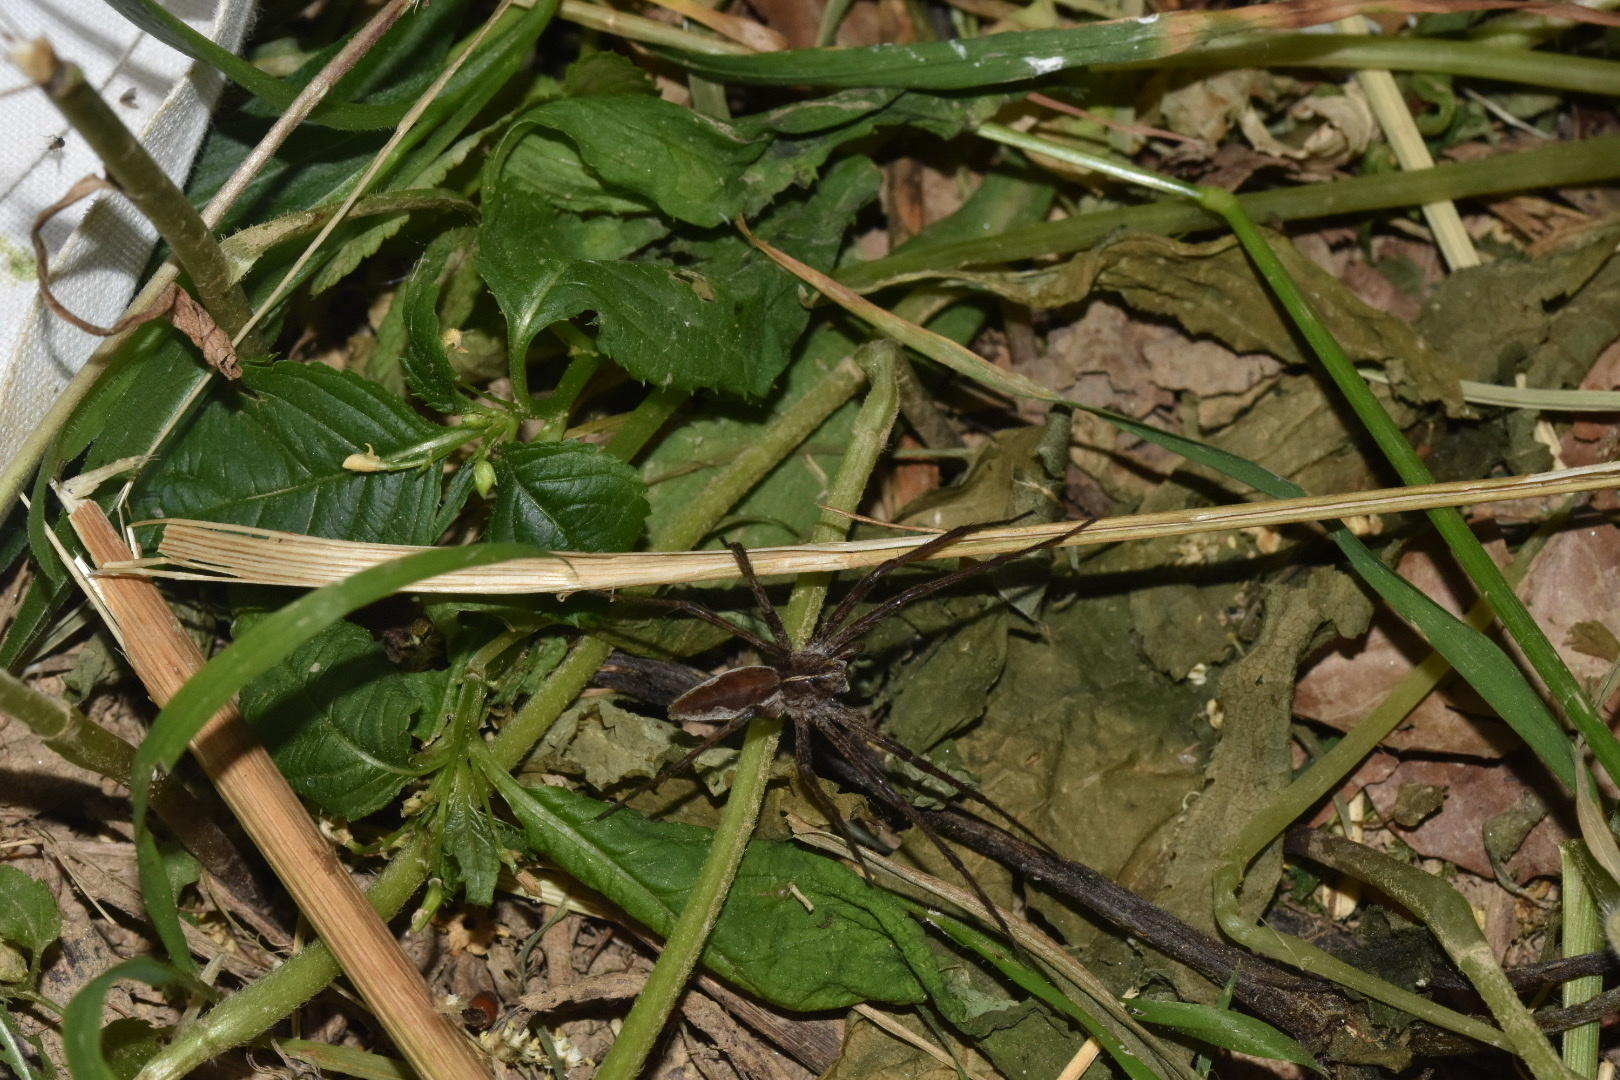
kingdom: Animalia
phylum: Arthropoda
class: Arachnida
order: Araneae
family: Pisauridae
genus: Pisaura
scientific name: Pisaura mirabilis
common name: Tent spider
